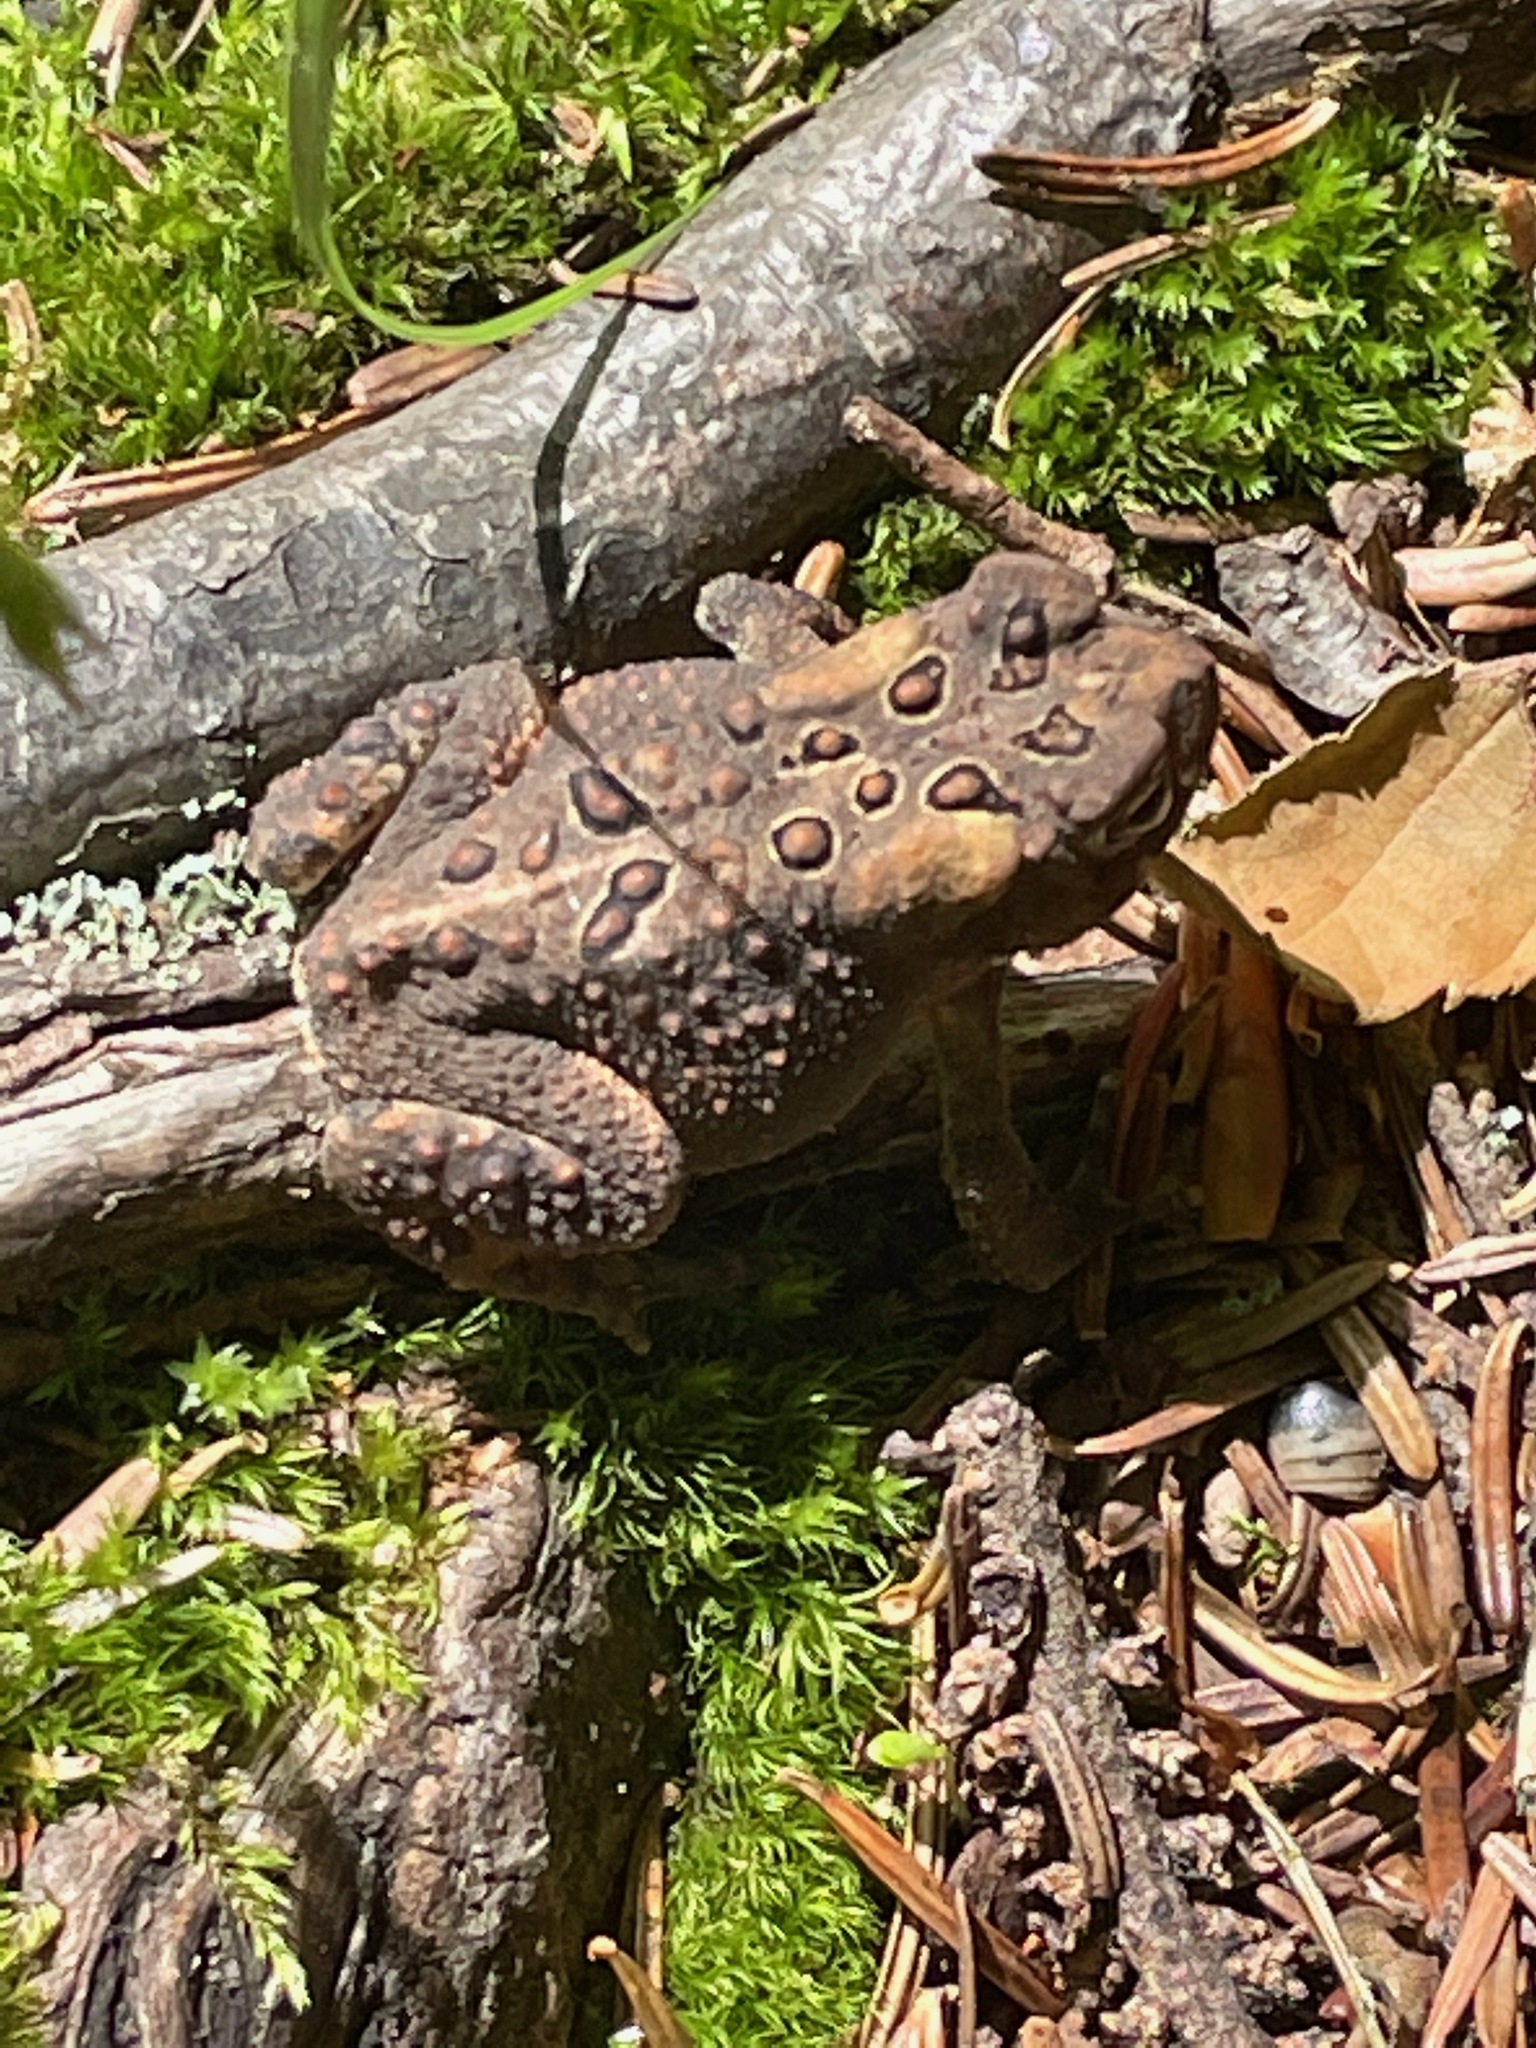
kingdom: Animalia
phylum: Chordata
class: Amphibia
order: Anura
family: Bufonidae
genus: Anaxyrus
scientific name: Anaxyrus americanus
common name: American toad
